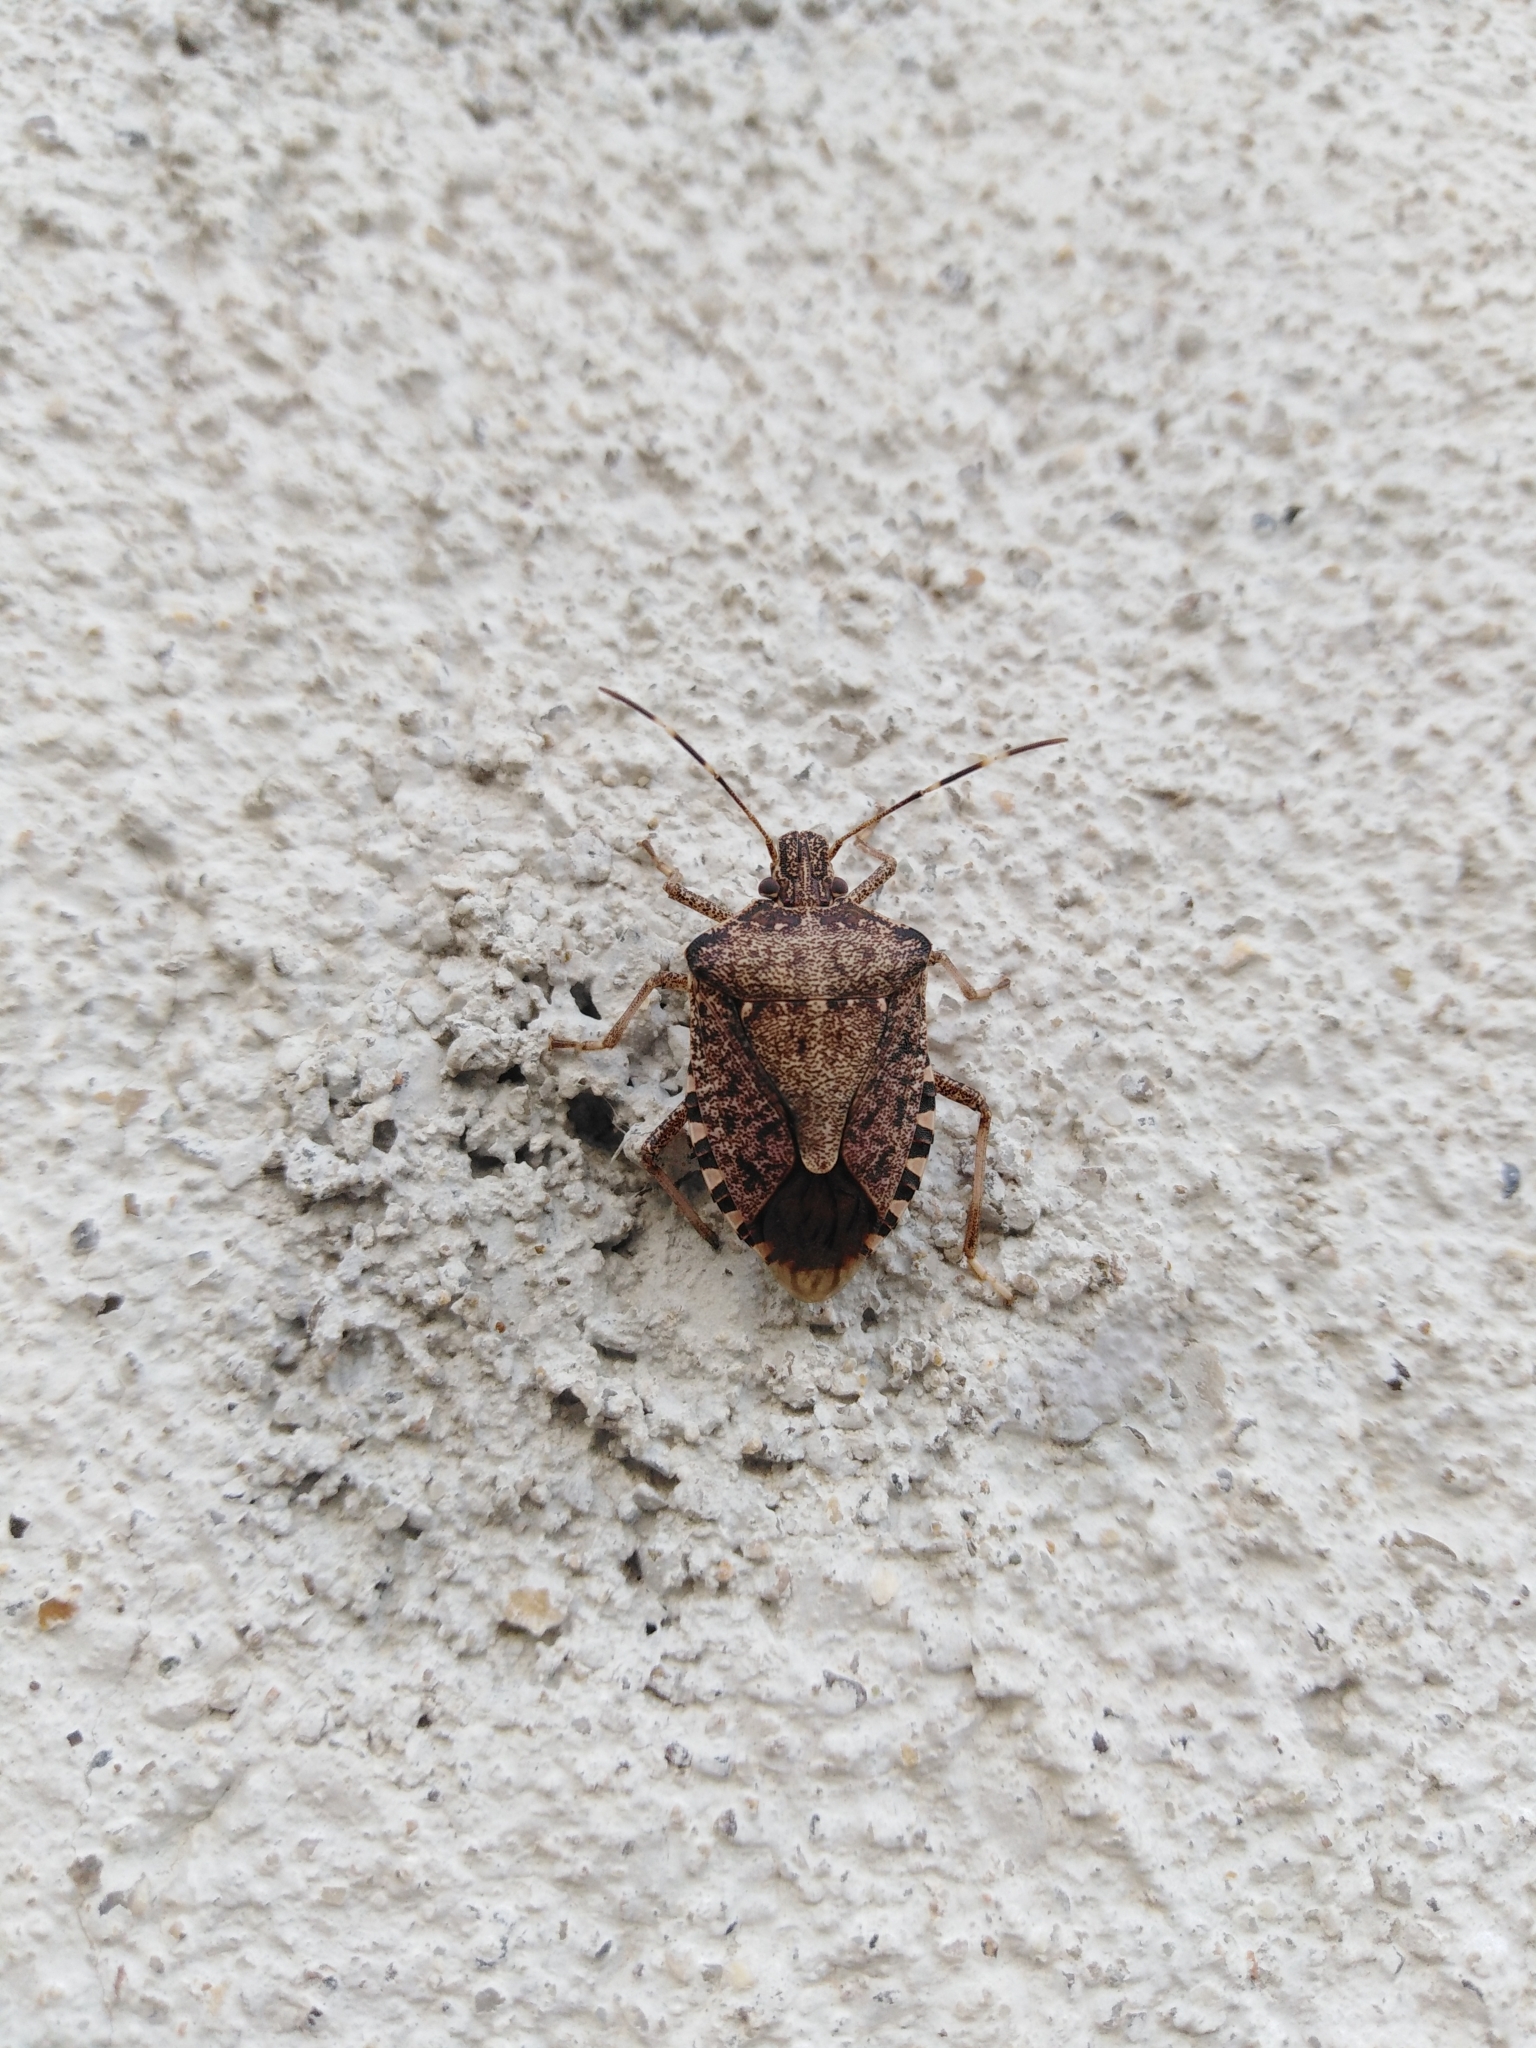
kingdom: Animalia
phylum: Arthropoda
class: Insecta
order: Hemiptera
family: Pentatomidae
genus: Halyomorpha
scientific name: Halyomorpha halys
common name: Brown marmorated stink bug
